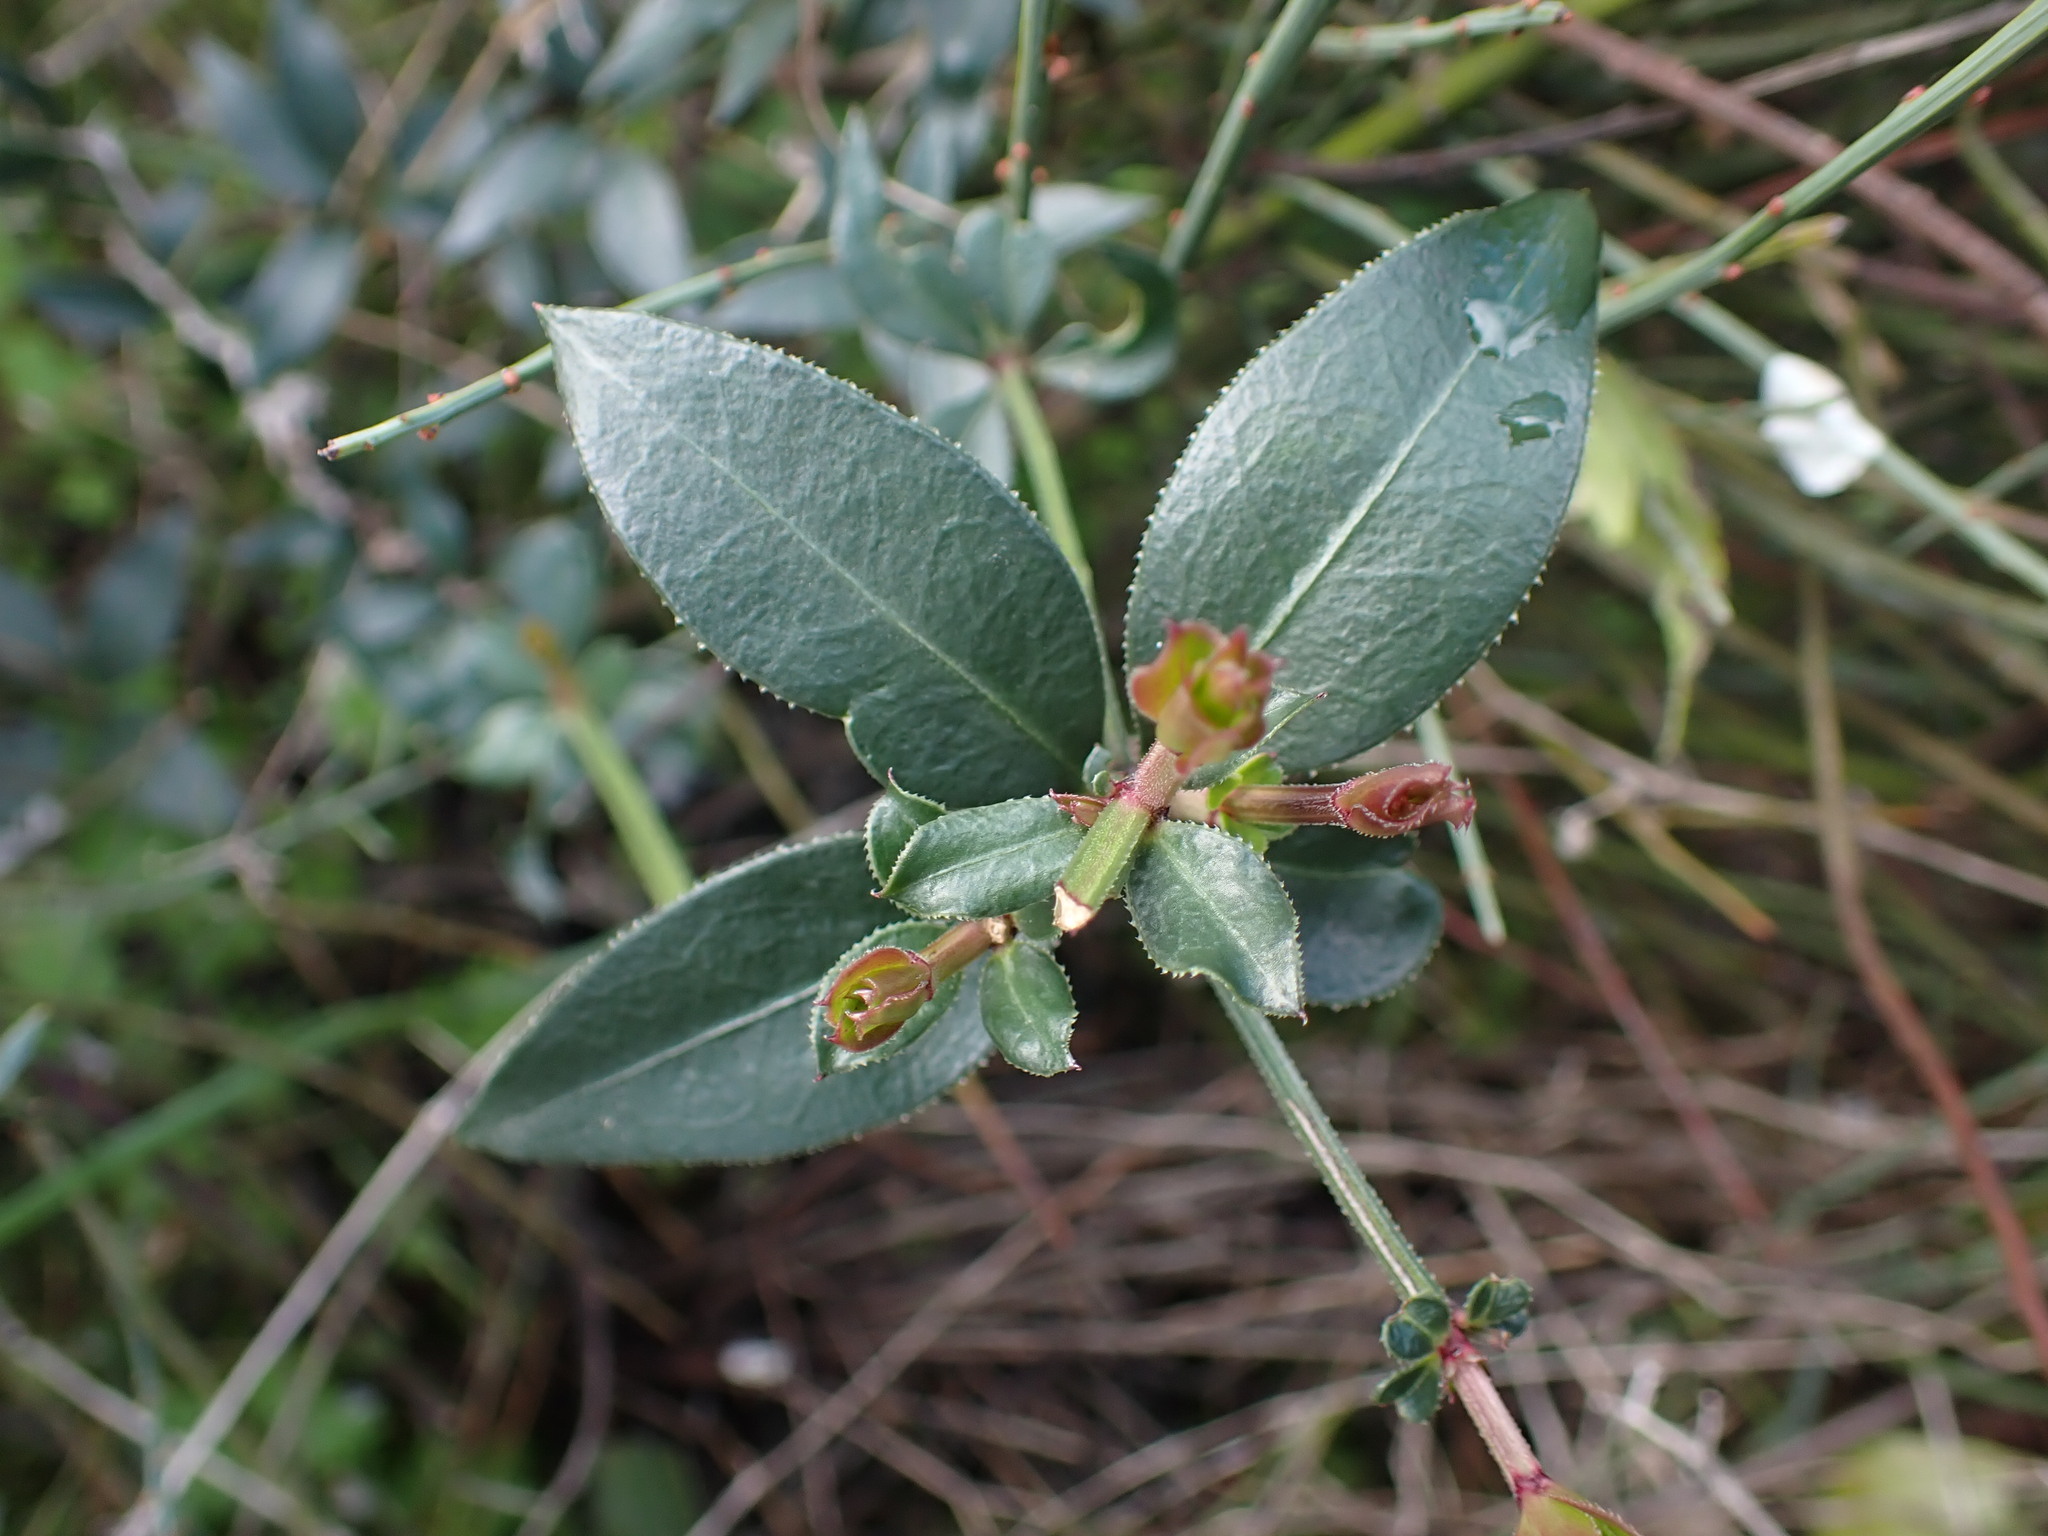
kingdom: Plantae
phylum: Tracheophyta
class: Magnoliopsida
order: Gentianales
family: Rubiaceae
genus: Rubia
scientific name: Rubia peregrina
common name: Wild madder
